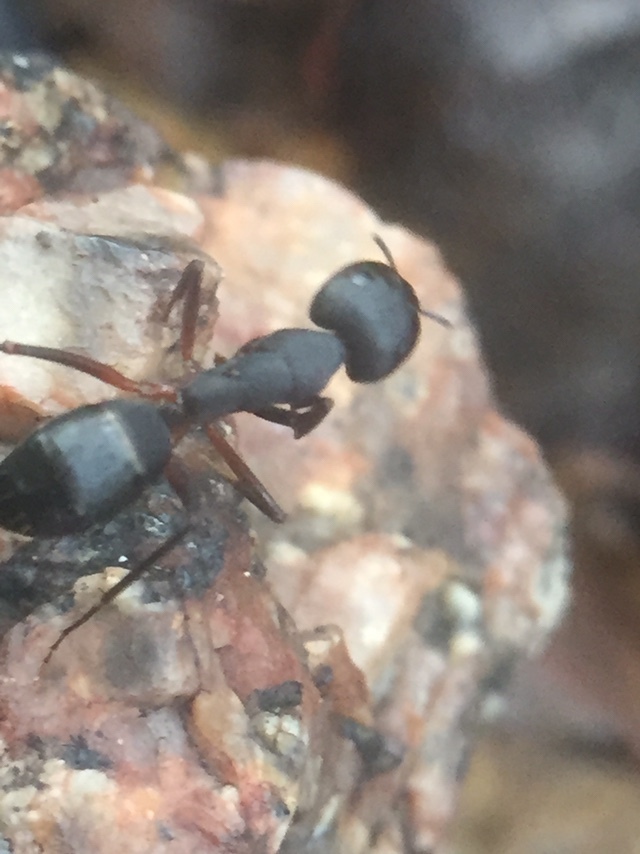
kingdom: Animalia
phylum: Arthropoda
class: Insecta
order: Hymenoptera
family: Formicidae
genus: Camponotus
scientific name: Camponotus compressus
